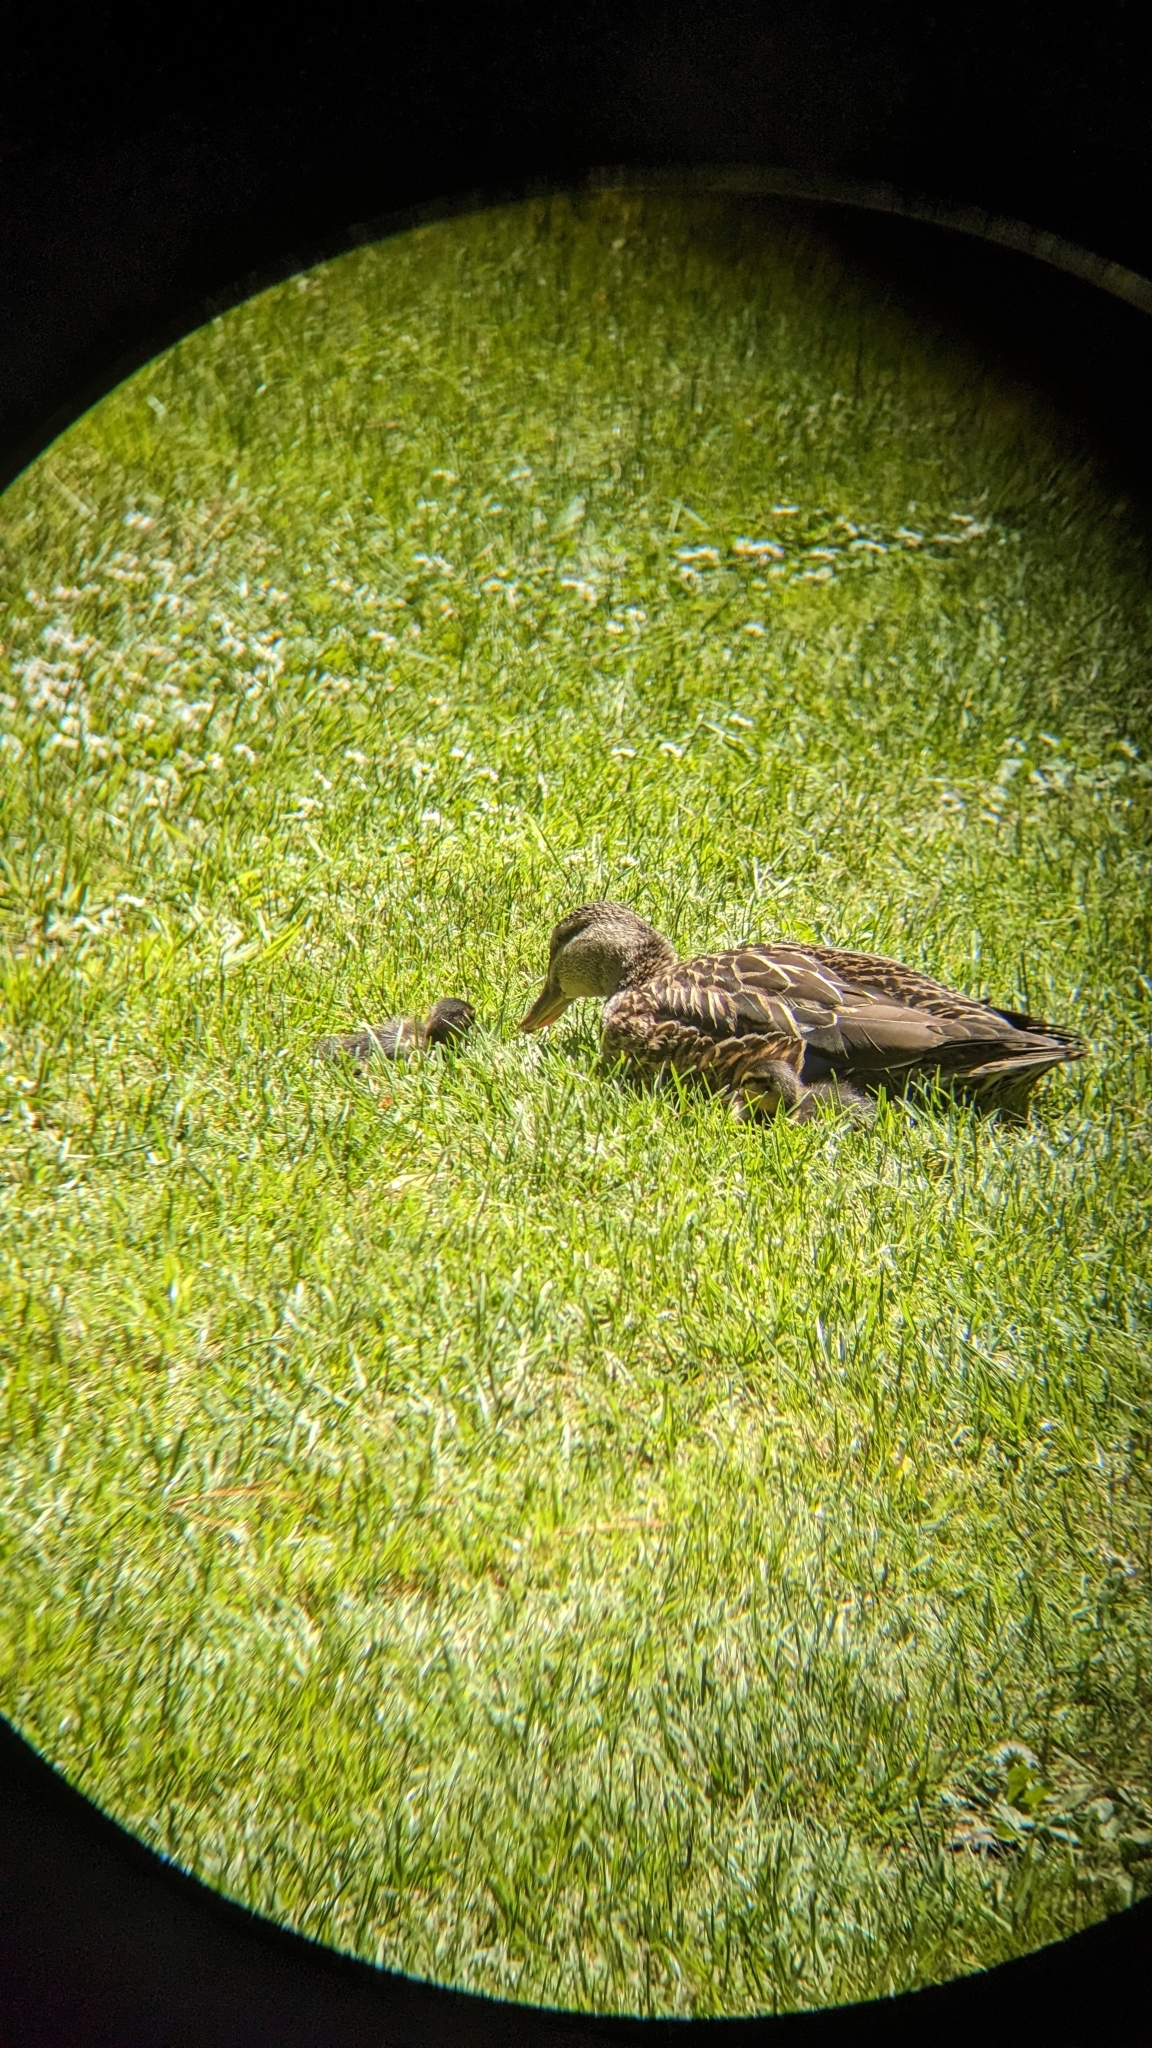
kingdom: Animalia
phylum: Chordata
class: Aves
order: Anseriformes
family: Anatidae
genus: Anas
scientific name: Anas
